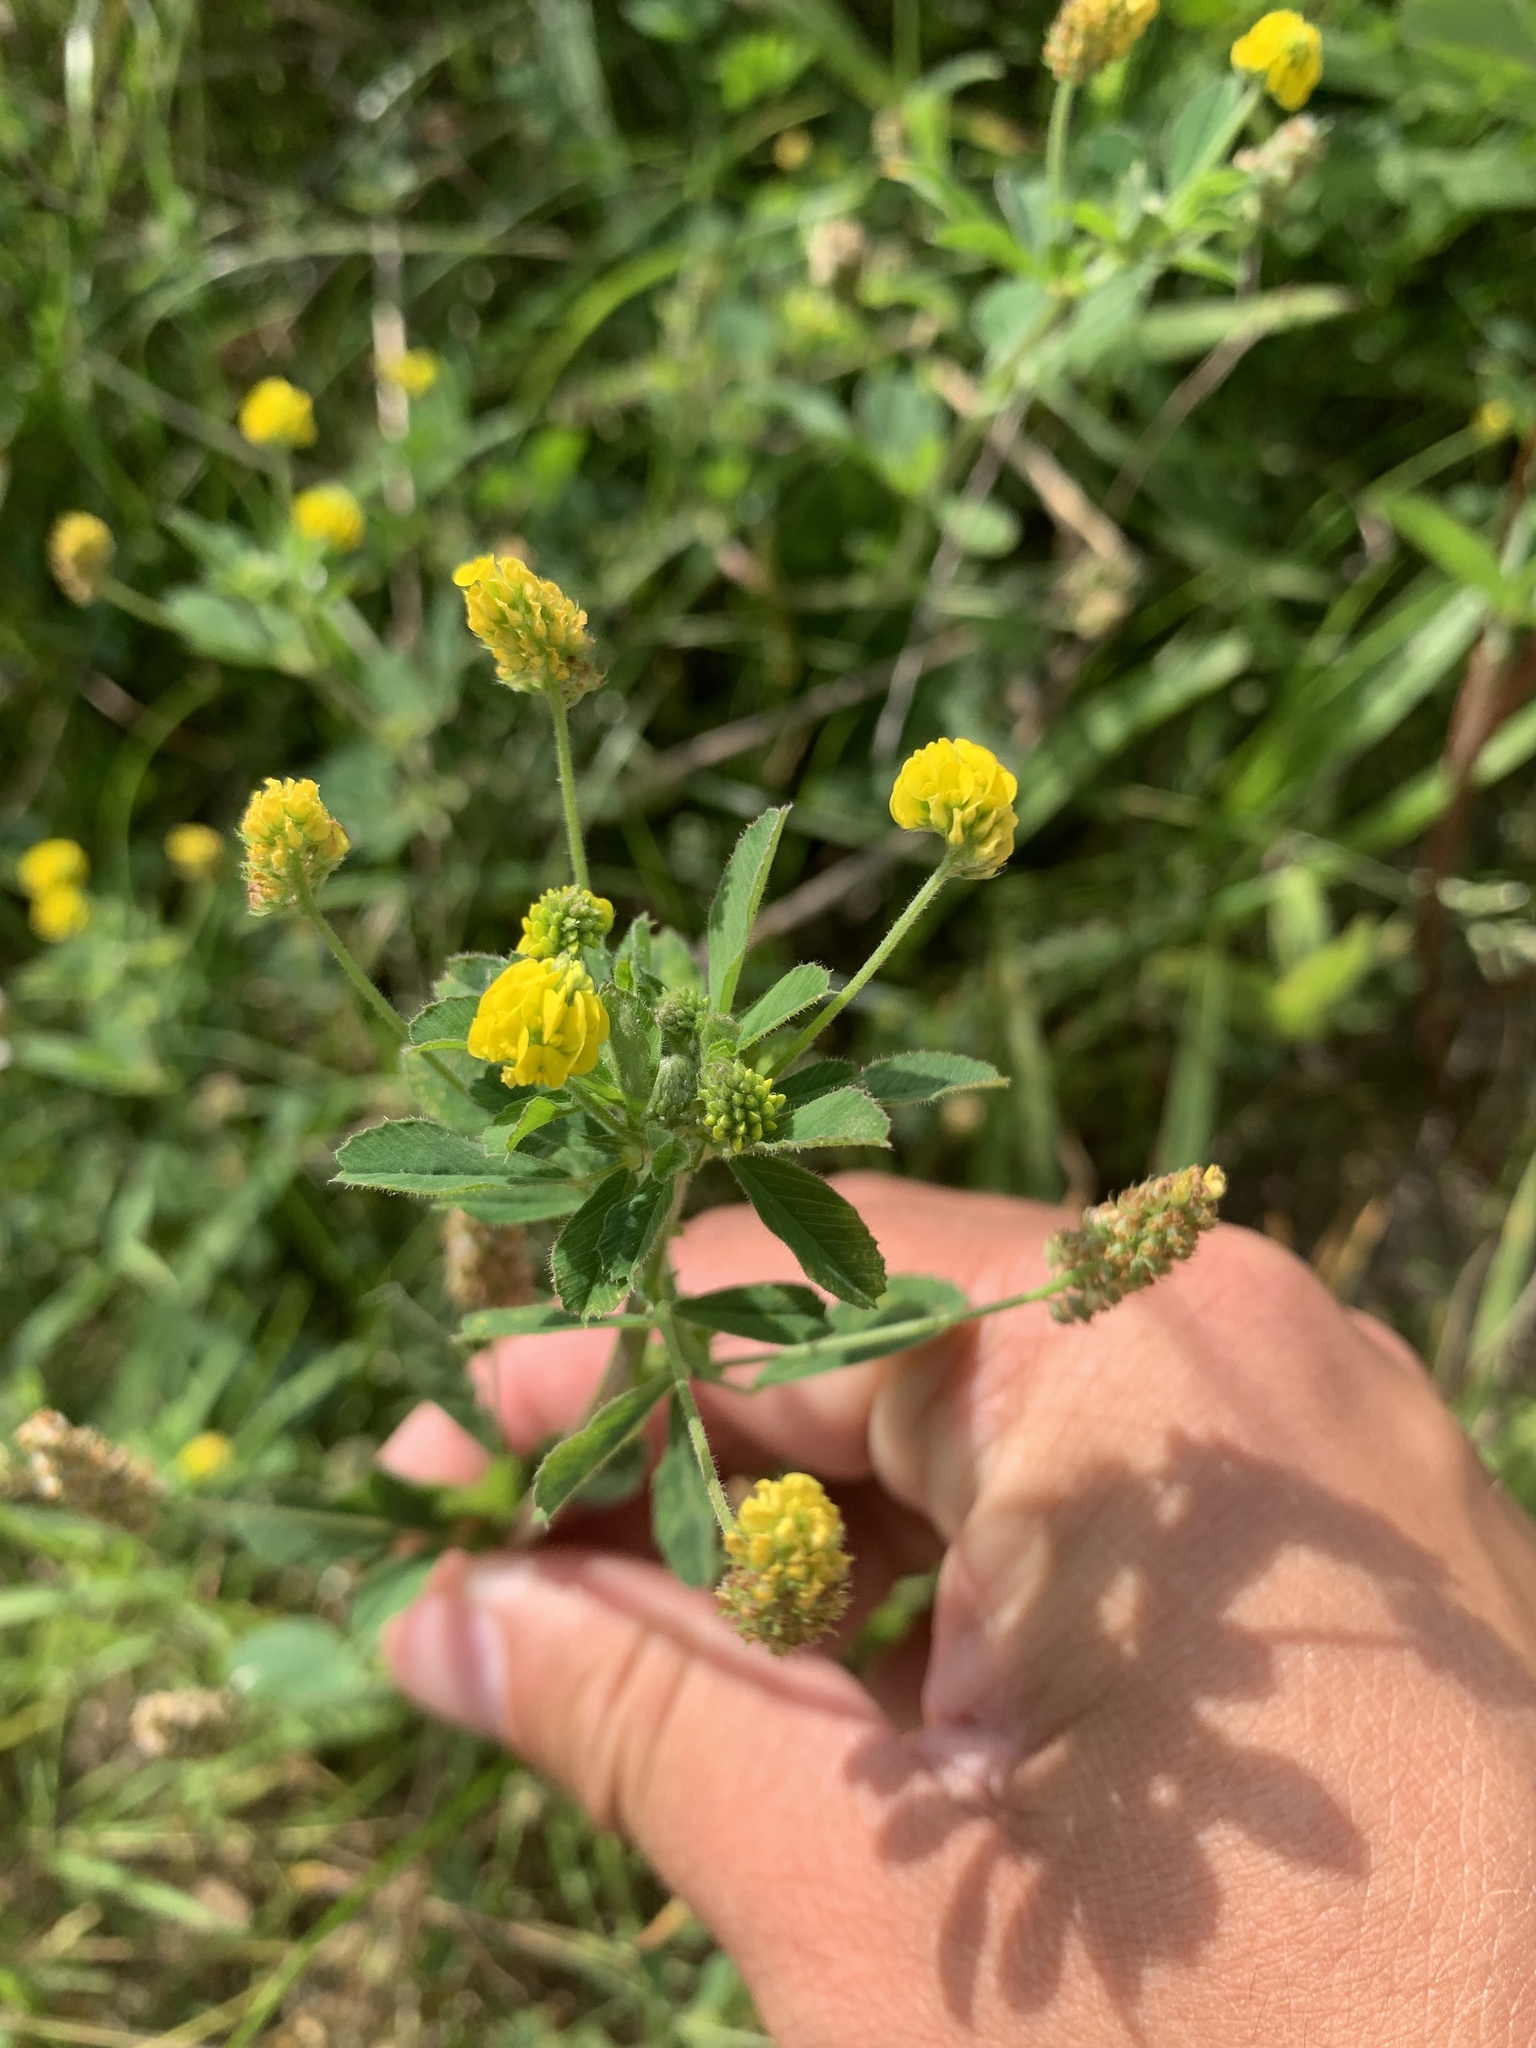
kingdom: Plantae
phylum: Tracheophyta
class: Magnoliopsida
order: Fabales
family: Fabaceae
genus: Medicago
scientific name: Medicago lupulina
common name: Black medick
